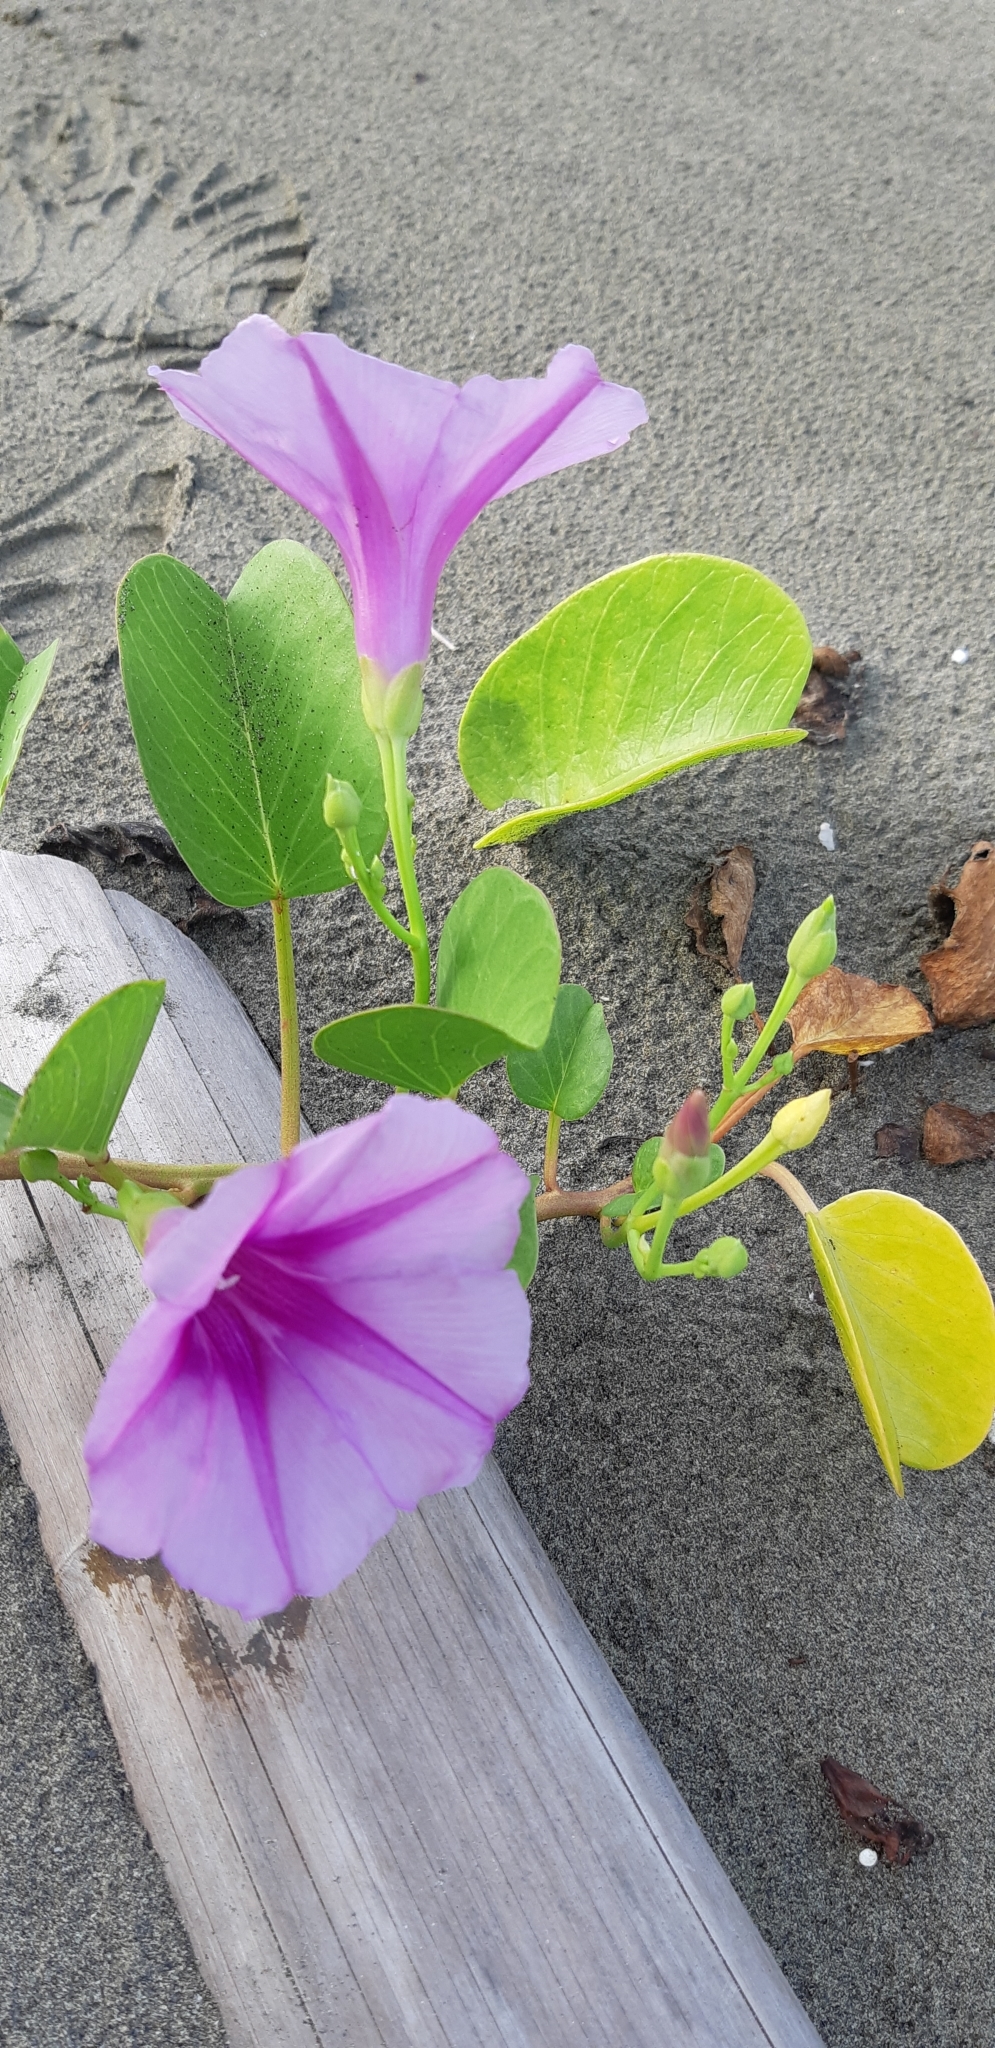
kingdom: Plantae
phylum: Tracheophyta
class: Magnoliopsida
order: Solanales
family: Convolvulaceae
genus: Ipomoea
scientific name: Ipomoea pes-caprae
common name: Beach morning glory
